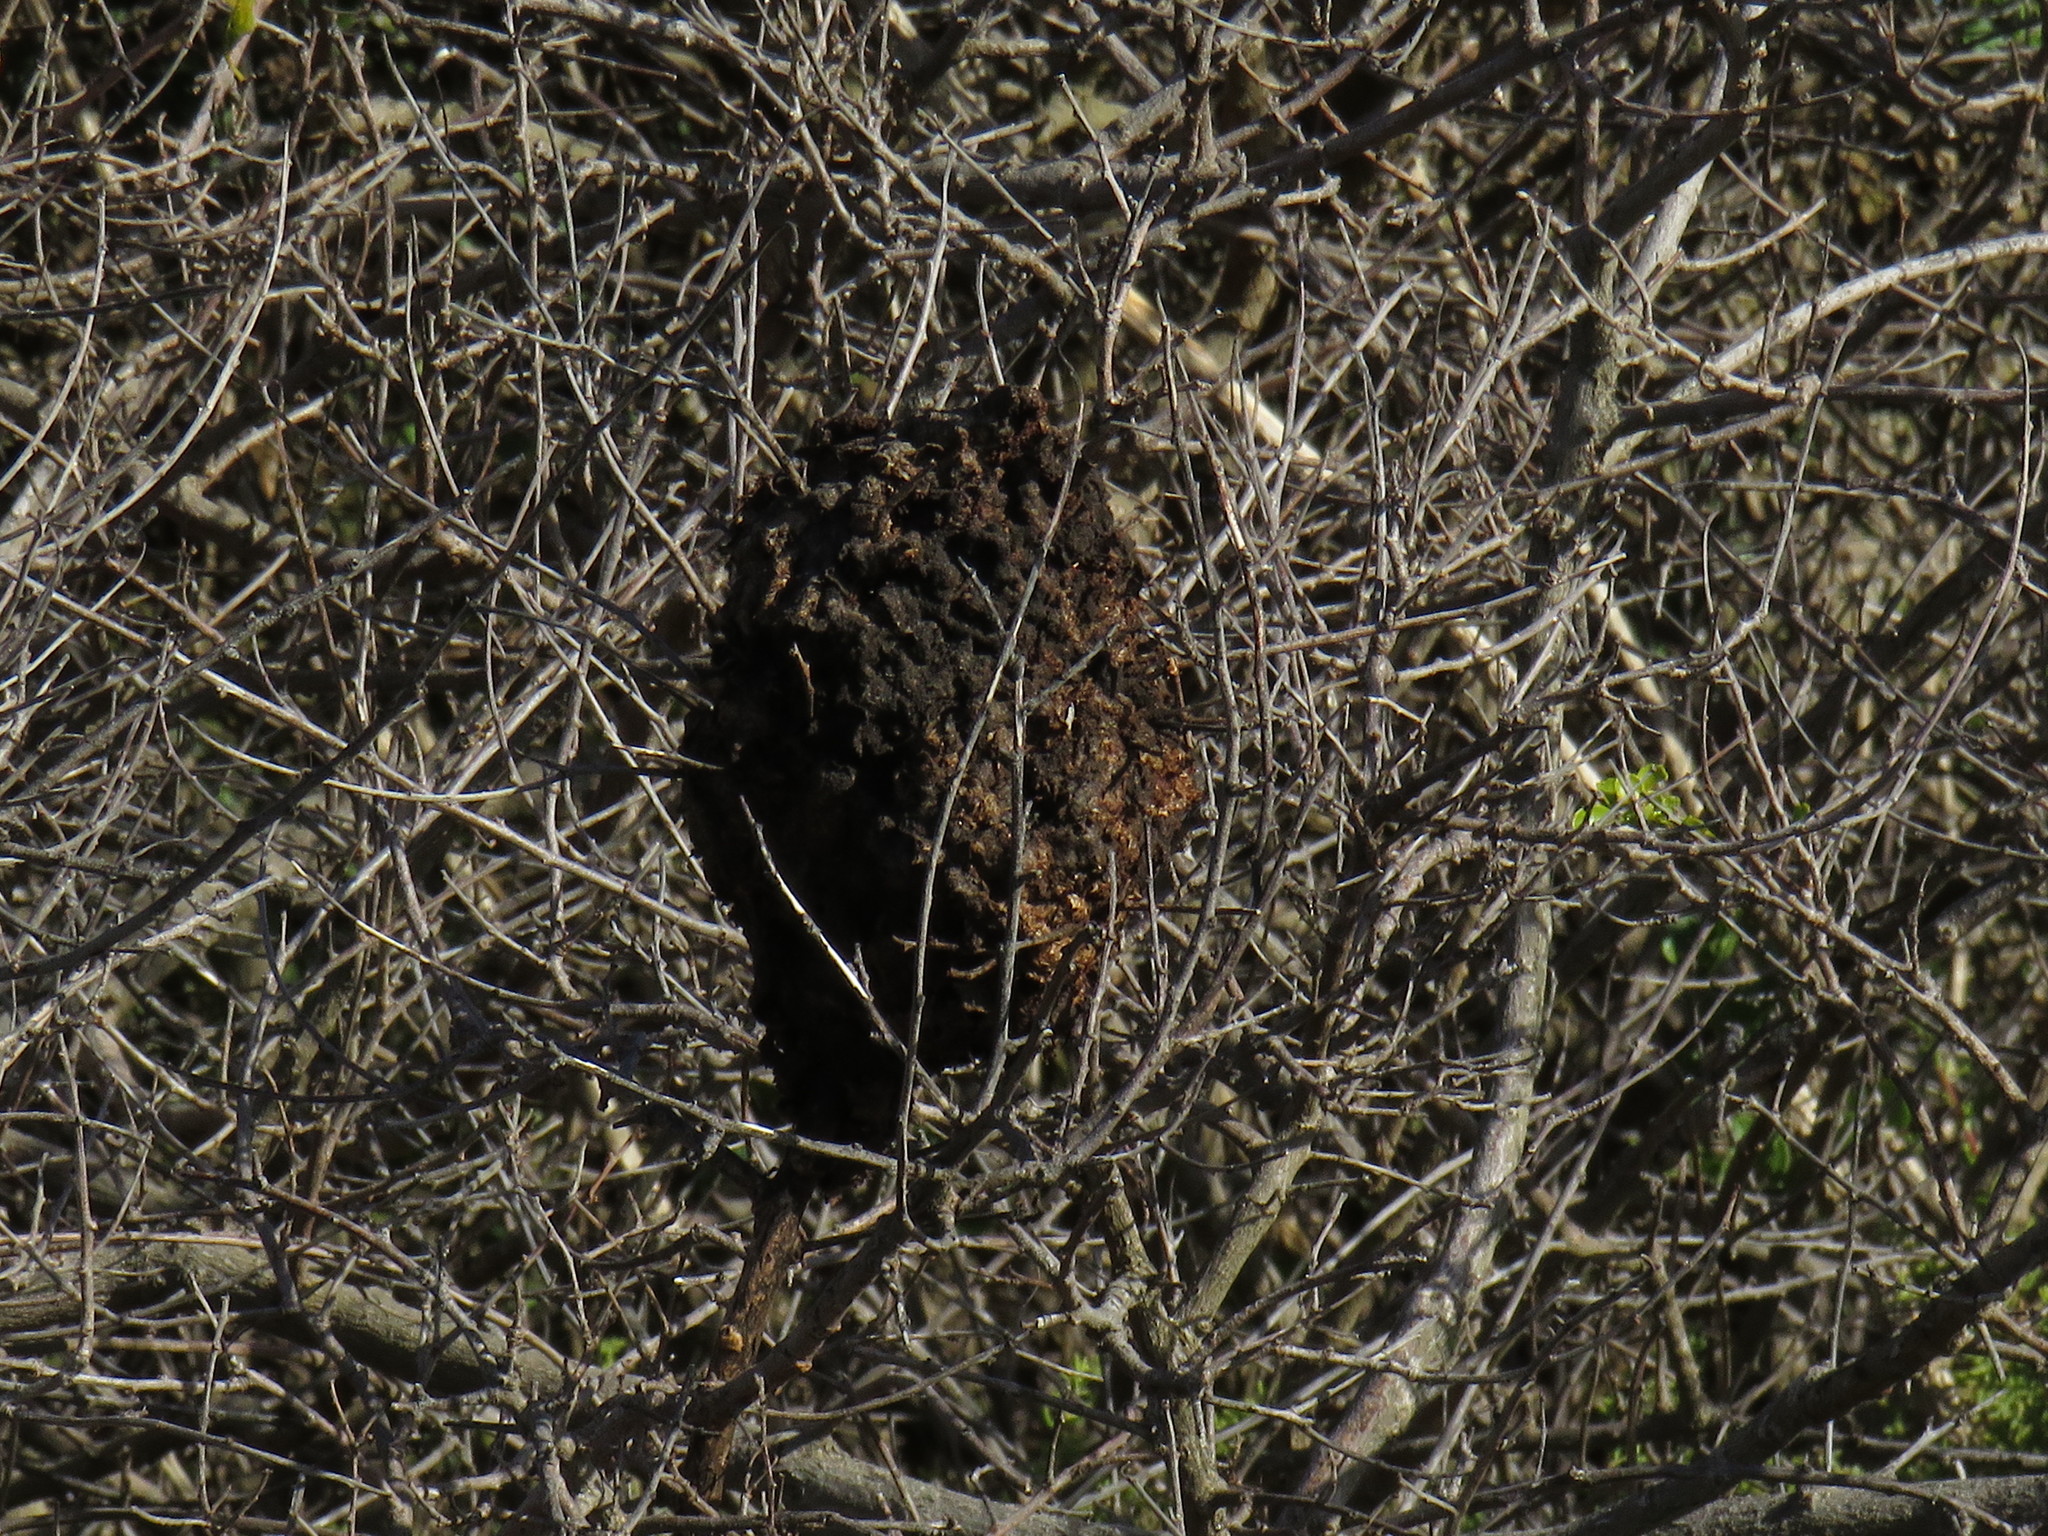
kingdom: Animalia
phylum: Arthropoda
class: Insecta
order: Hymenoptera
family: Formicidae
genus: Crematogaster
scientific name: Crematogaster peringueyi
